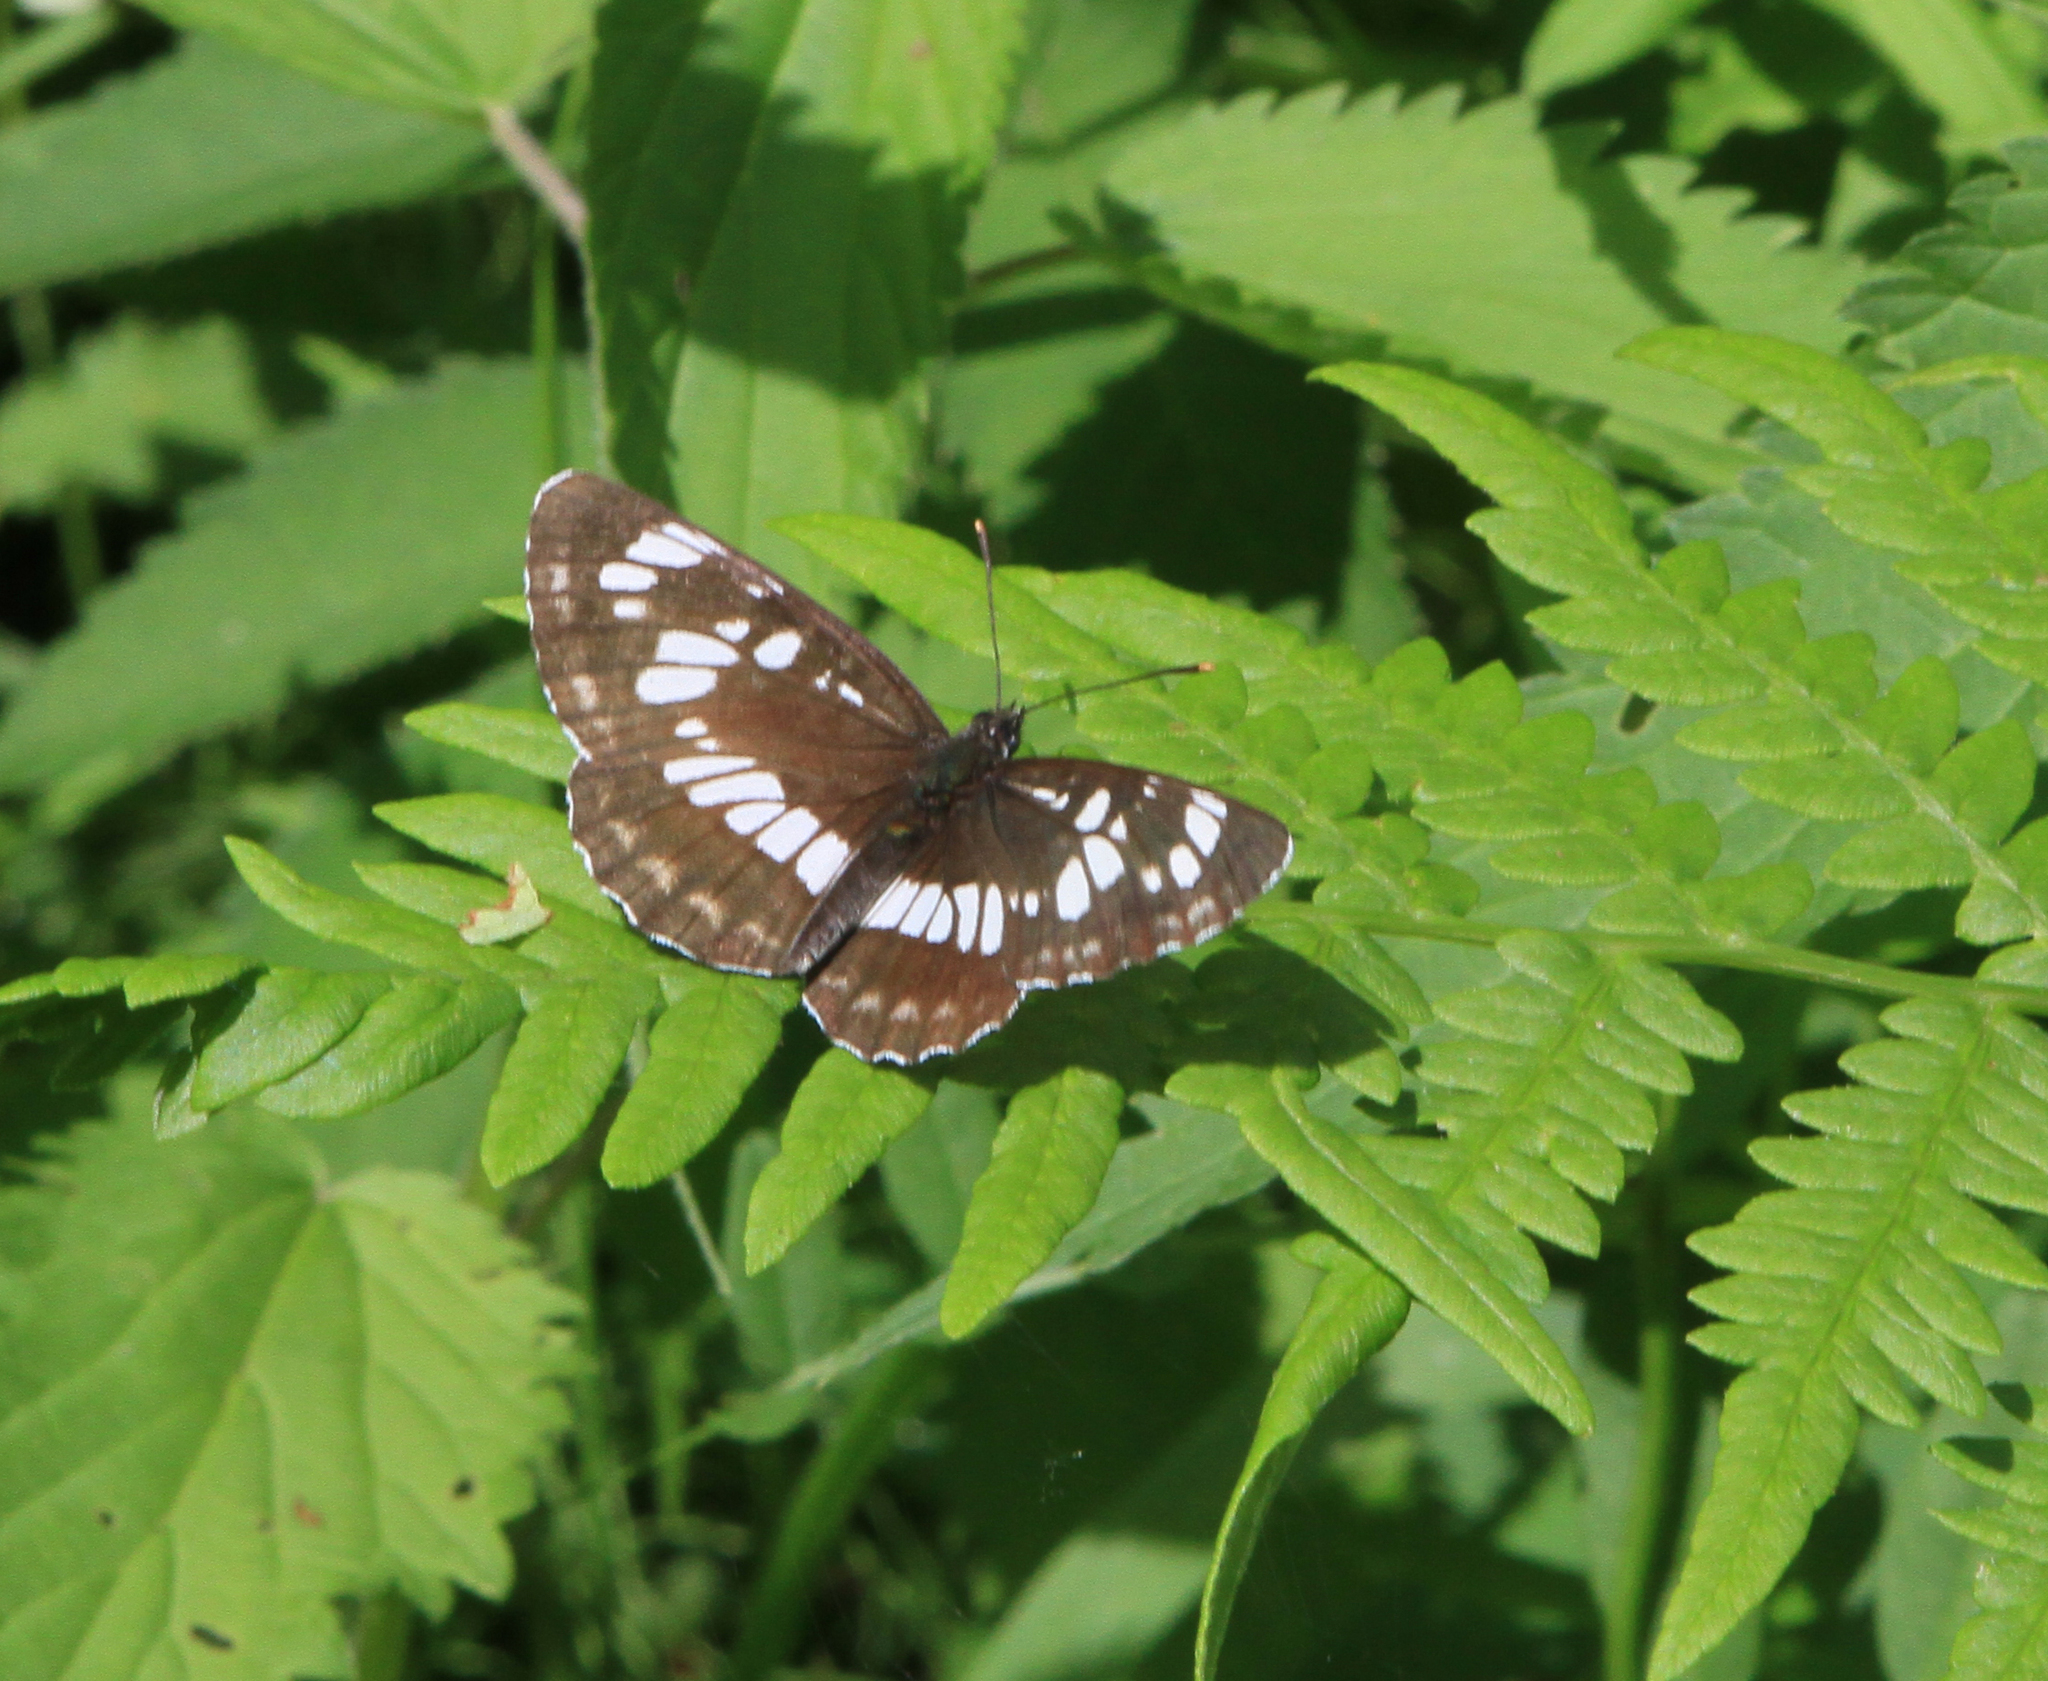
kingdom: Animalia
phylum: Arthropoda
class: Insecta
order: Lepidoptera
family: Nymphalidae
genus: Neptis
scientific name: Neptis rivularis
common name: Hungarian glider
